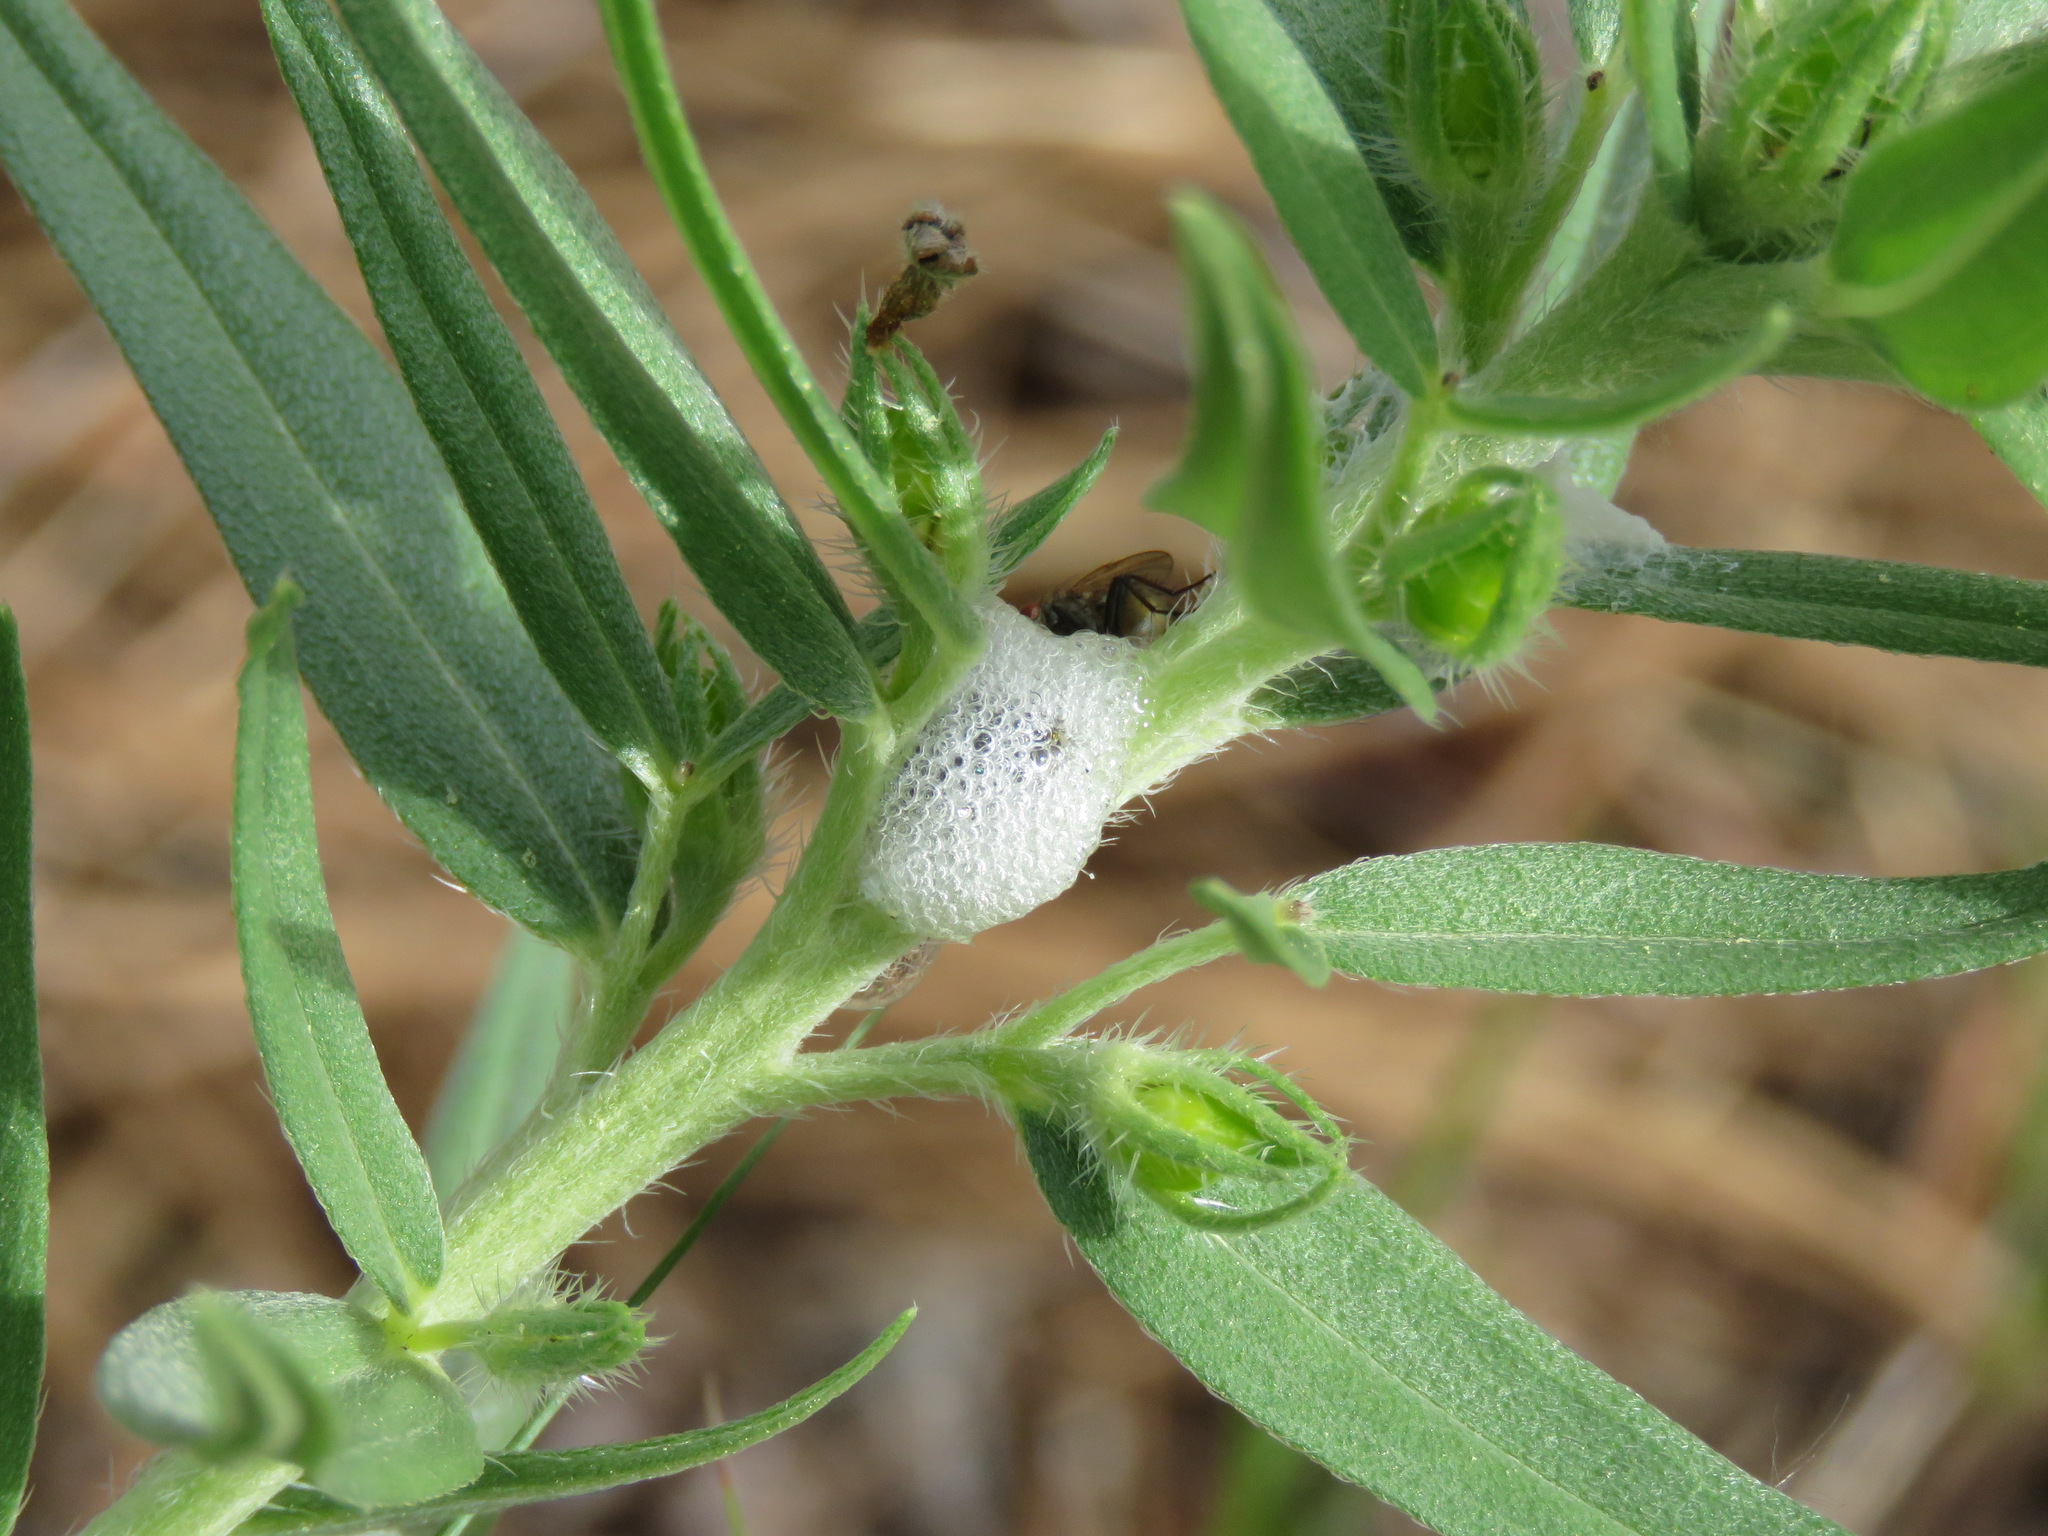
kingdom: Animalia
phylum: Arthropoda
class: Insecta
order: Hemiptera
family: Aphrophoridae
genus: Philaenus
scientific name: Philaenus spumarius
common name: Meadow spittlebug
